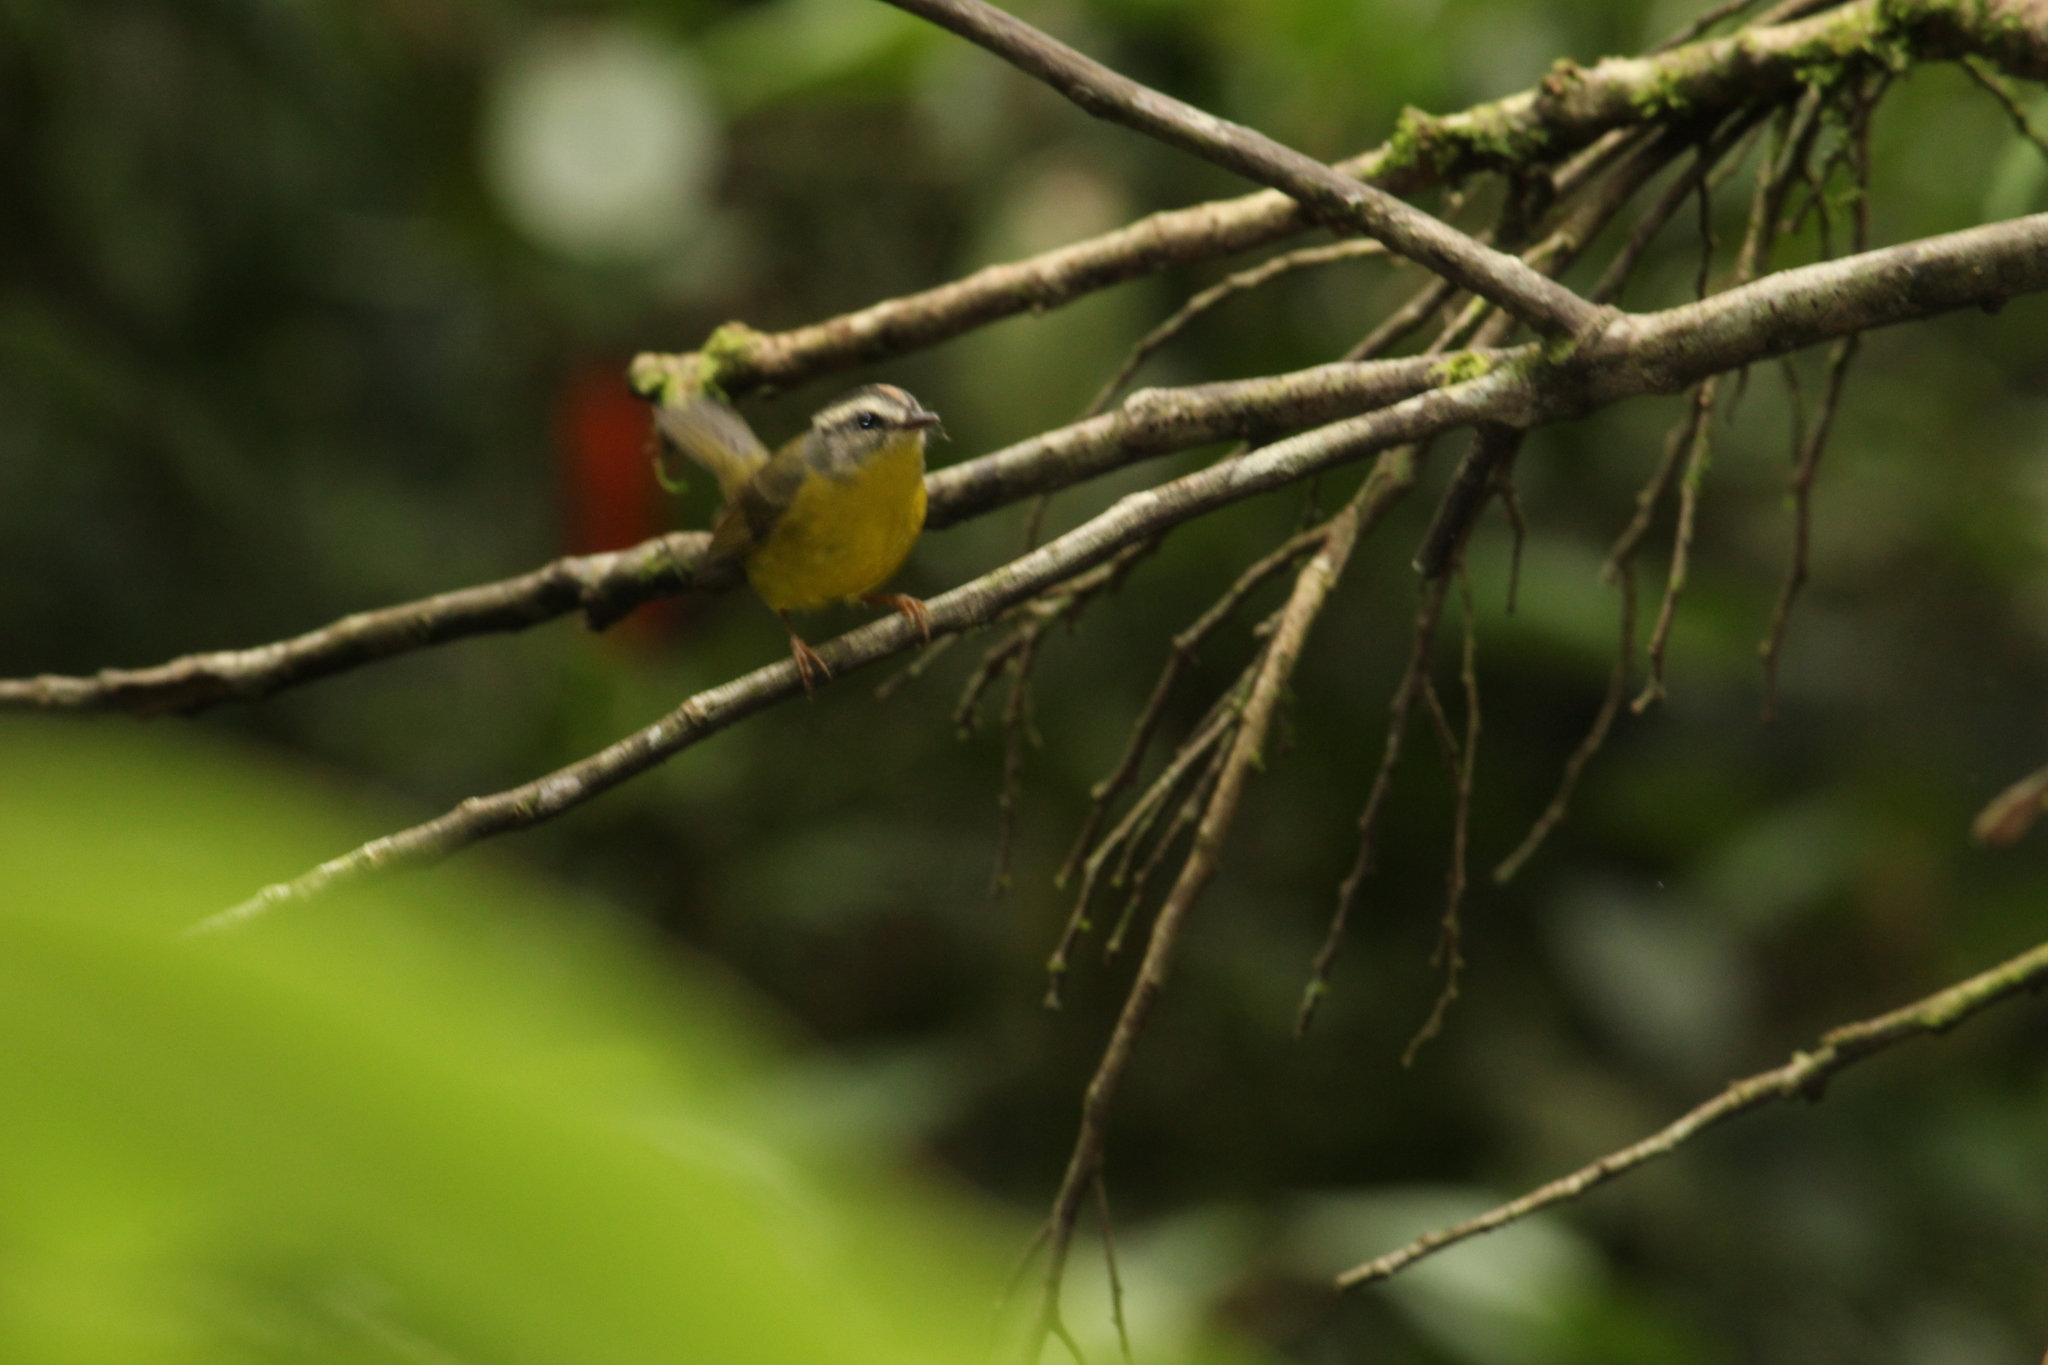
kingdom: Animalia
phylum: Chordata
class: Aves
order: Passeriformes
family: Parulidae
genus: Basileuterus
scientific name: Basileuterus culicivorus
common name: Golden-crowned warbler
